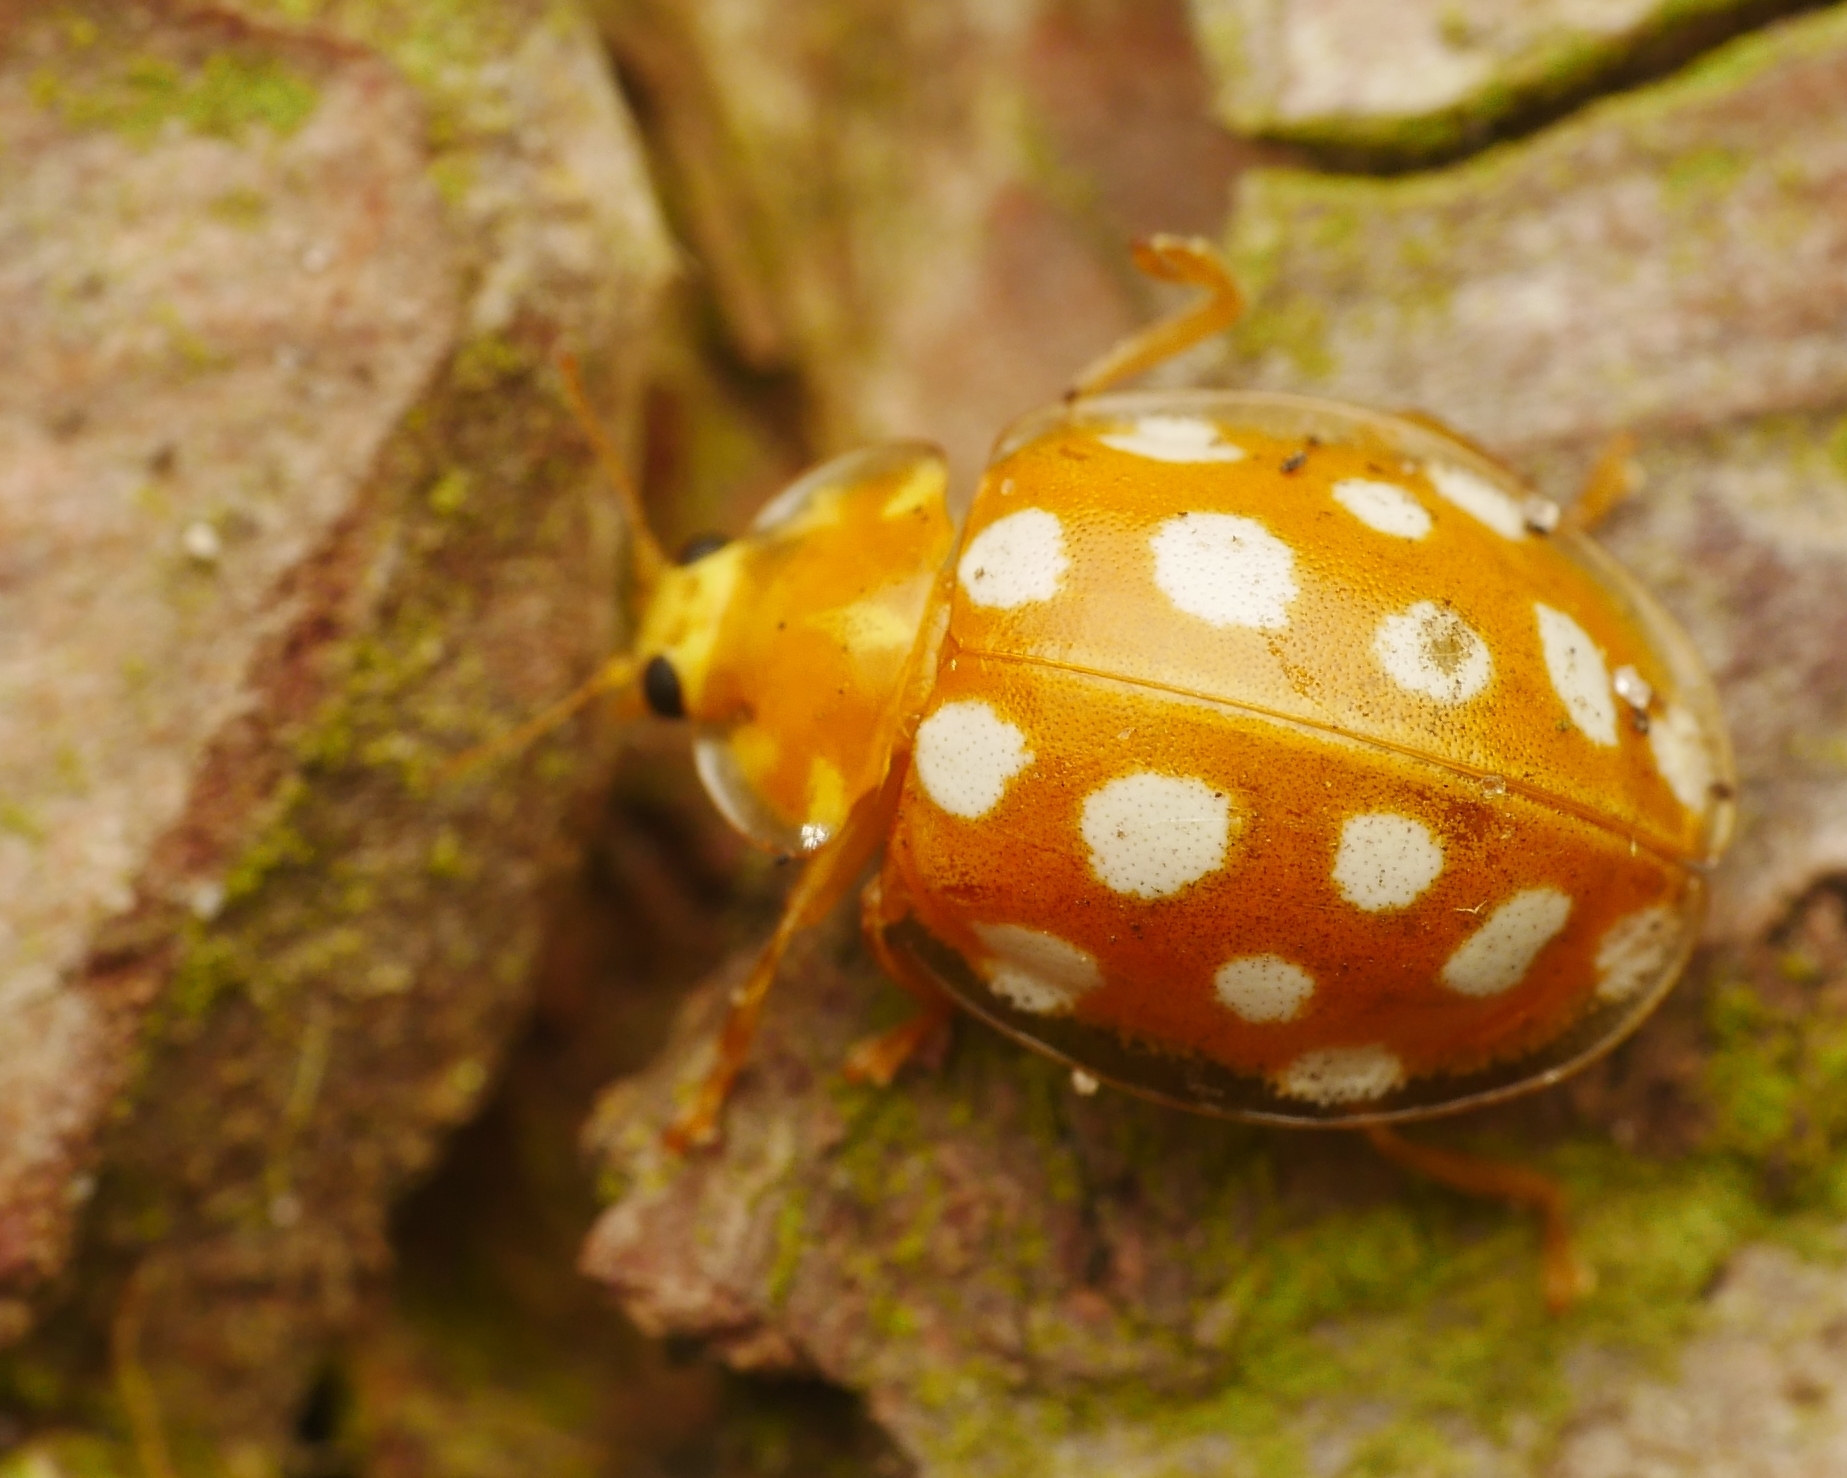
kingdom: Animalia
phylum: Arthropoda
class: Insecta
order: Coleoptera
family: Coccinellidae
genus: Halyzia
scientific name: Halyzia sedecimguttata
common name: Orange ladybird
